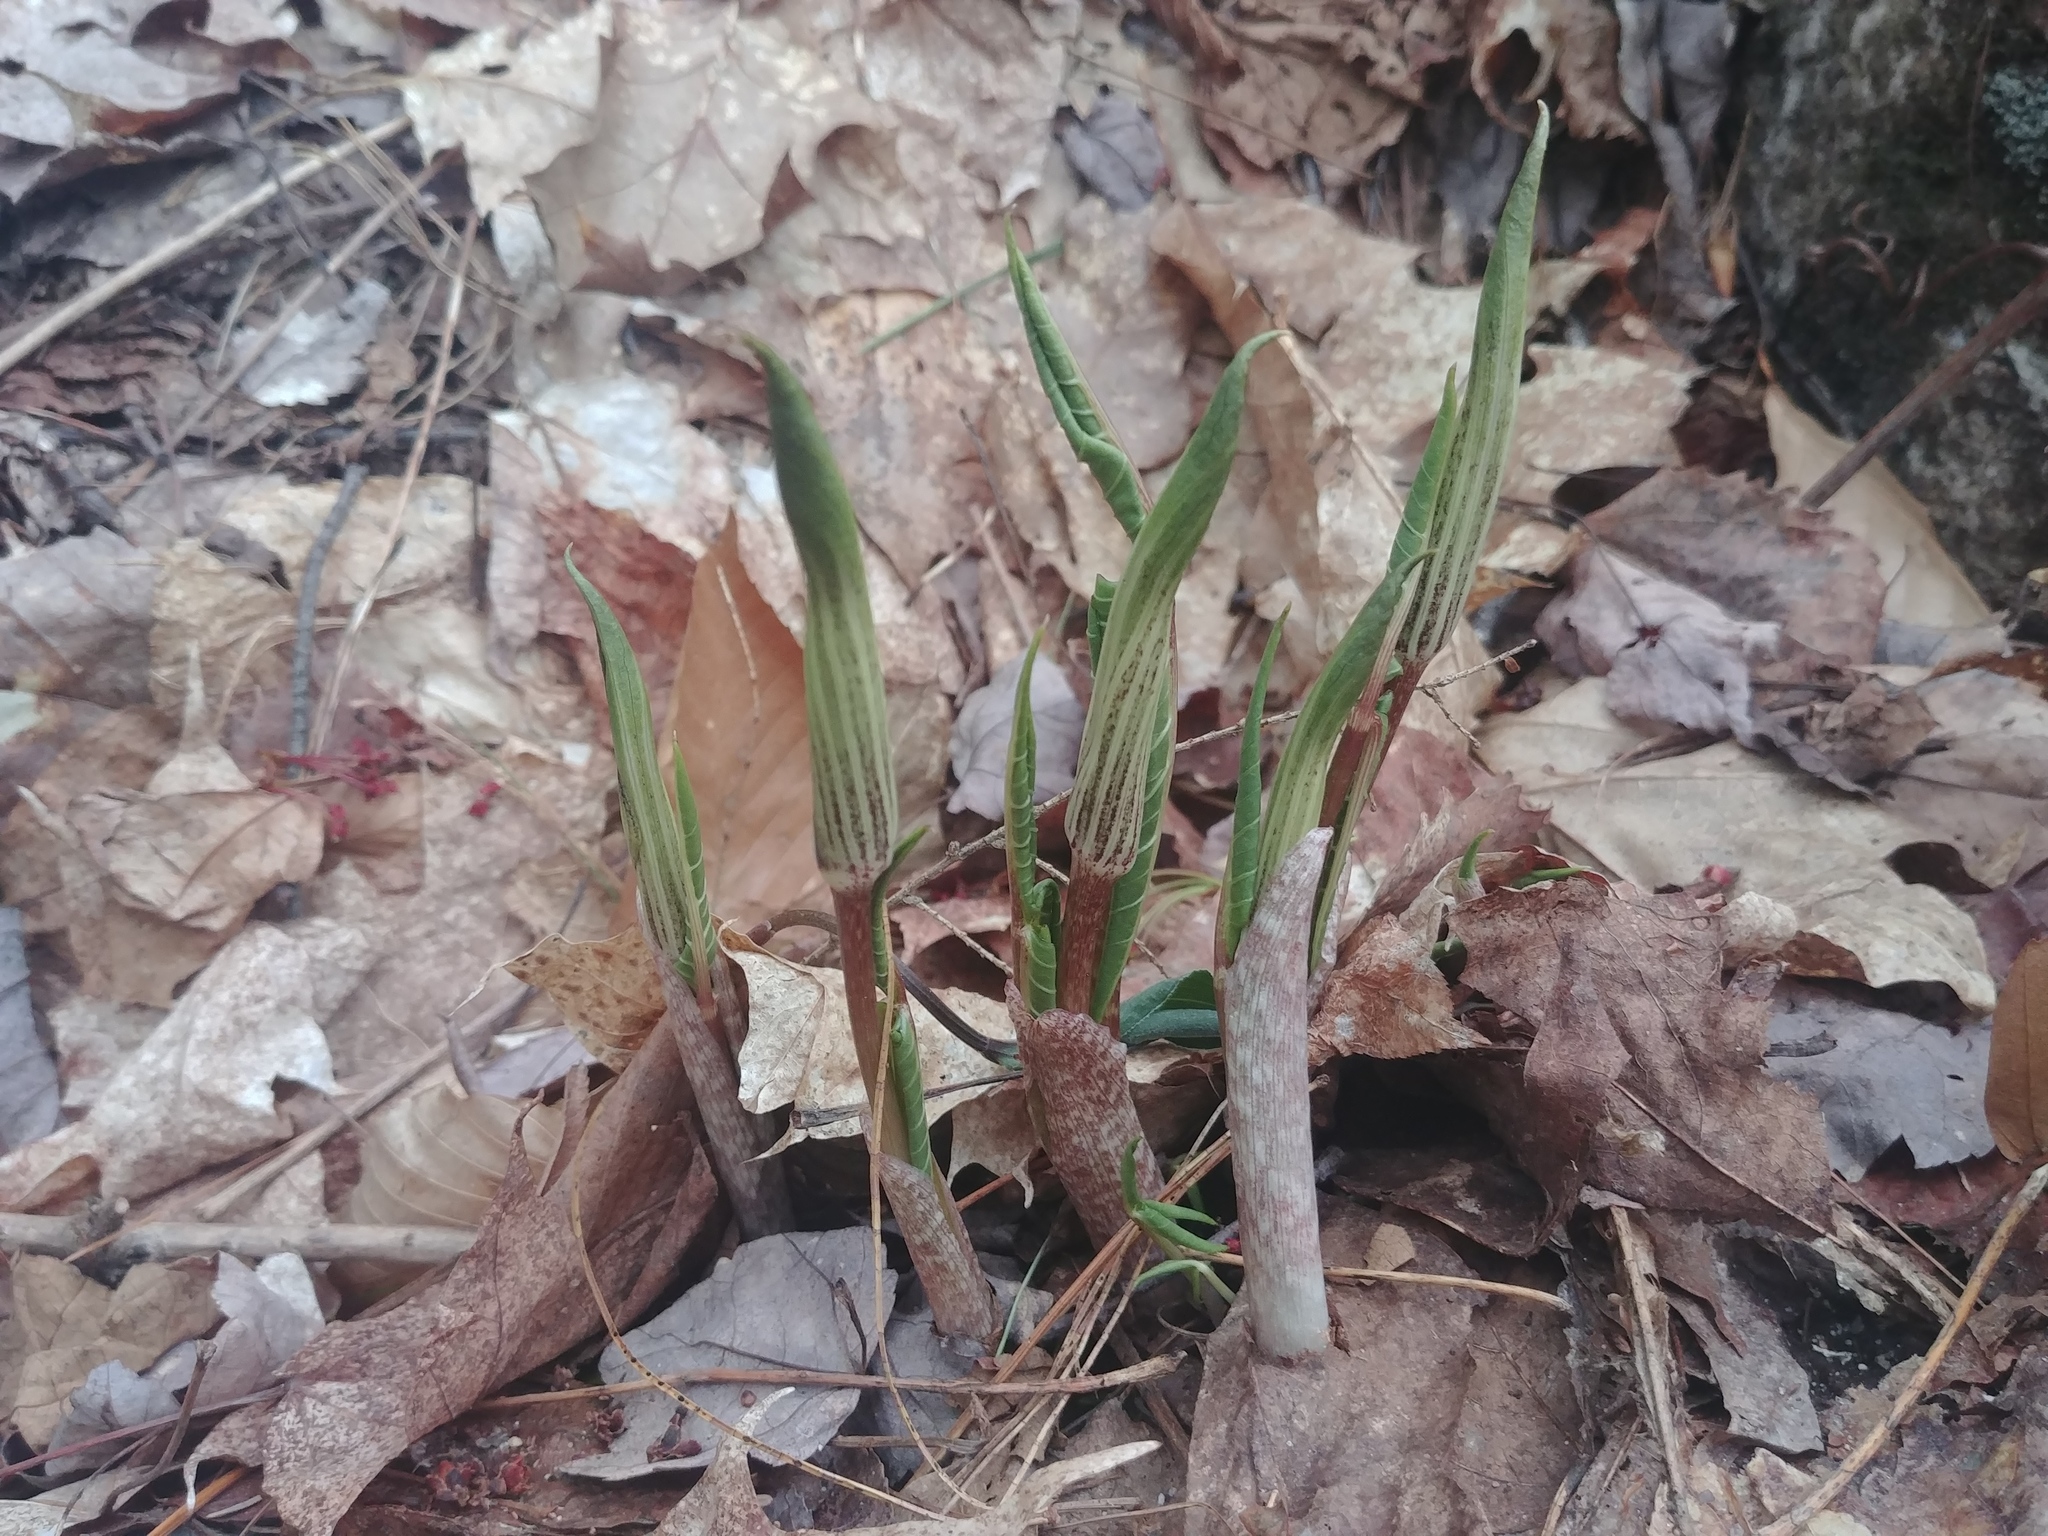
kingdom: Plantae
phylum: Tracheophyta
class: Liliopsida
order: Alismatales
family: Araceae
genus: Arisaema
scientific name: Arisaema triphyllum
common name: Jack-in-the-pulpit
